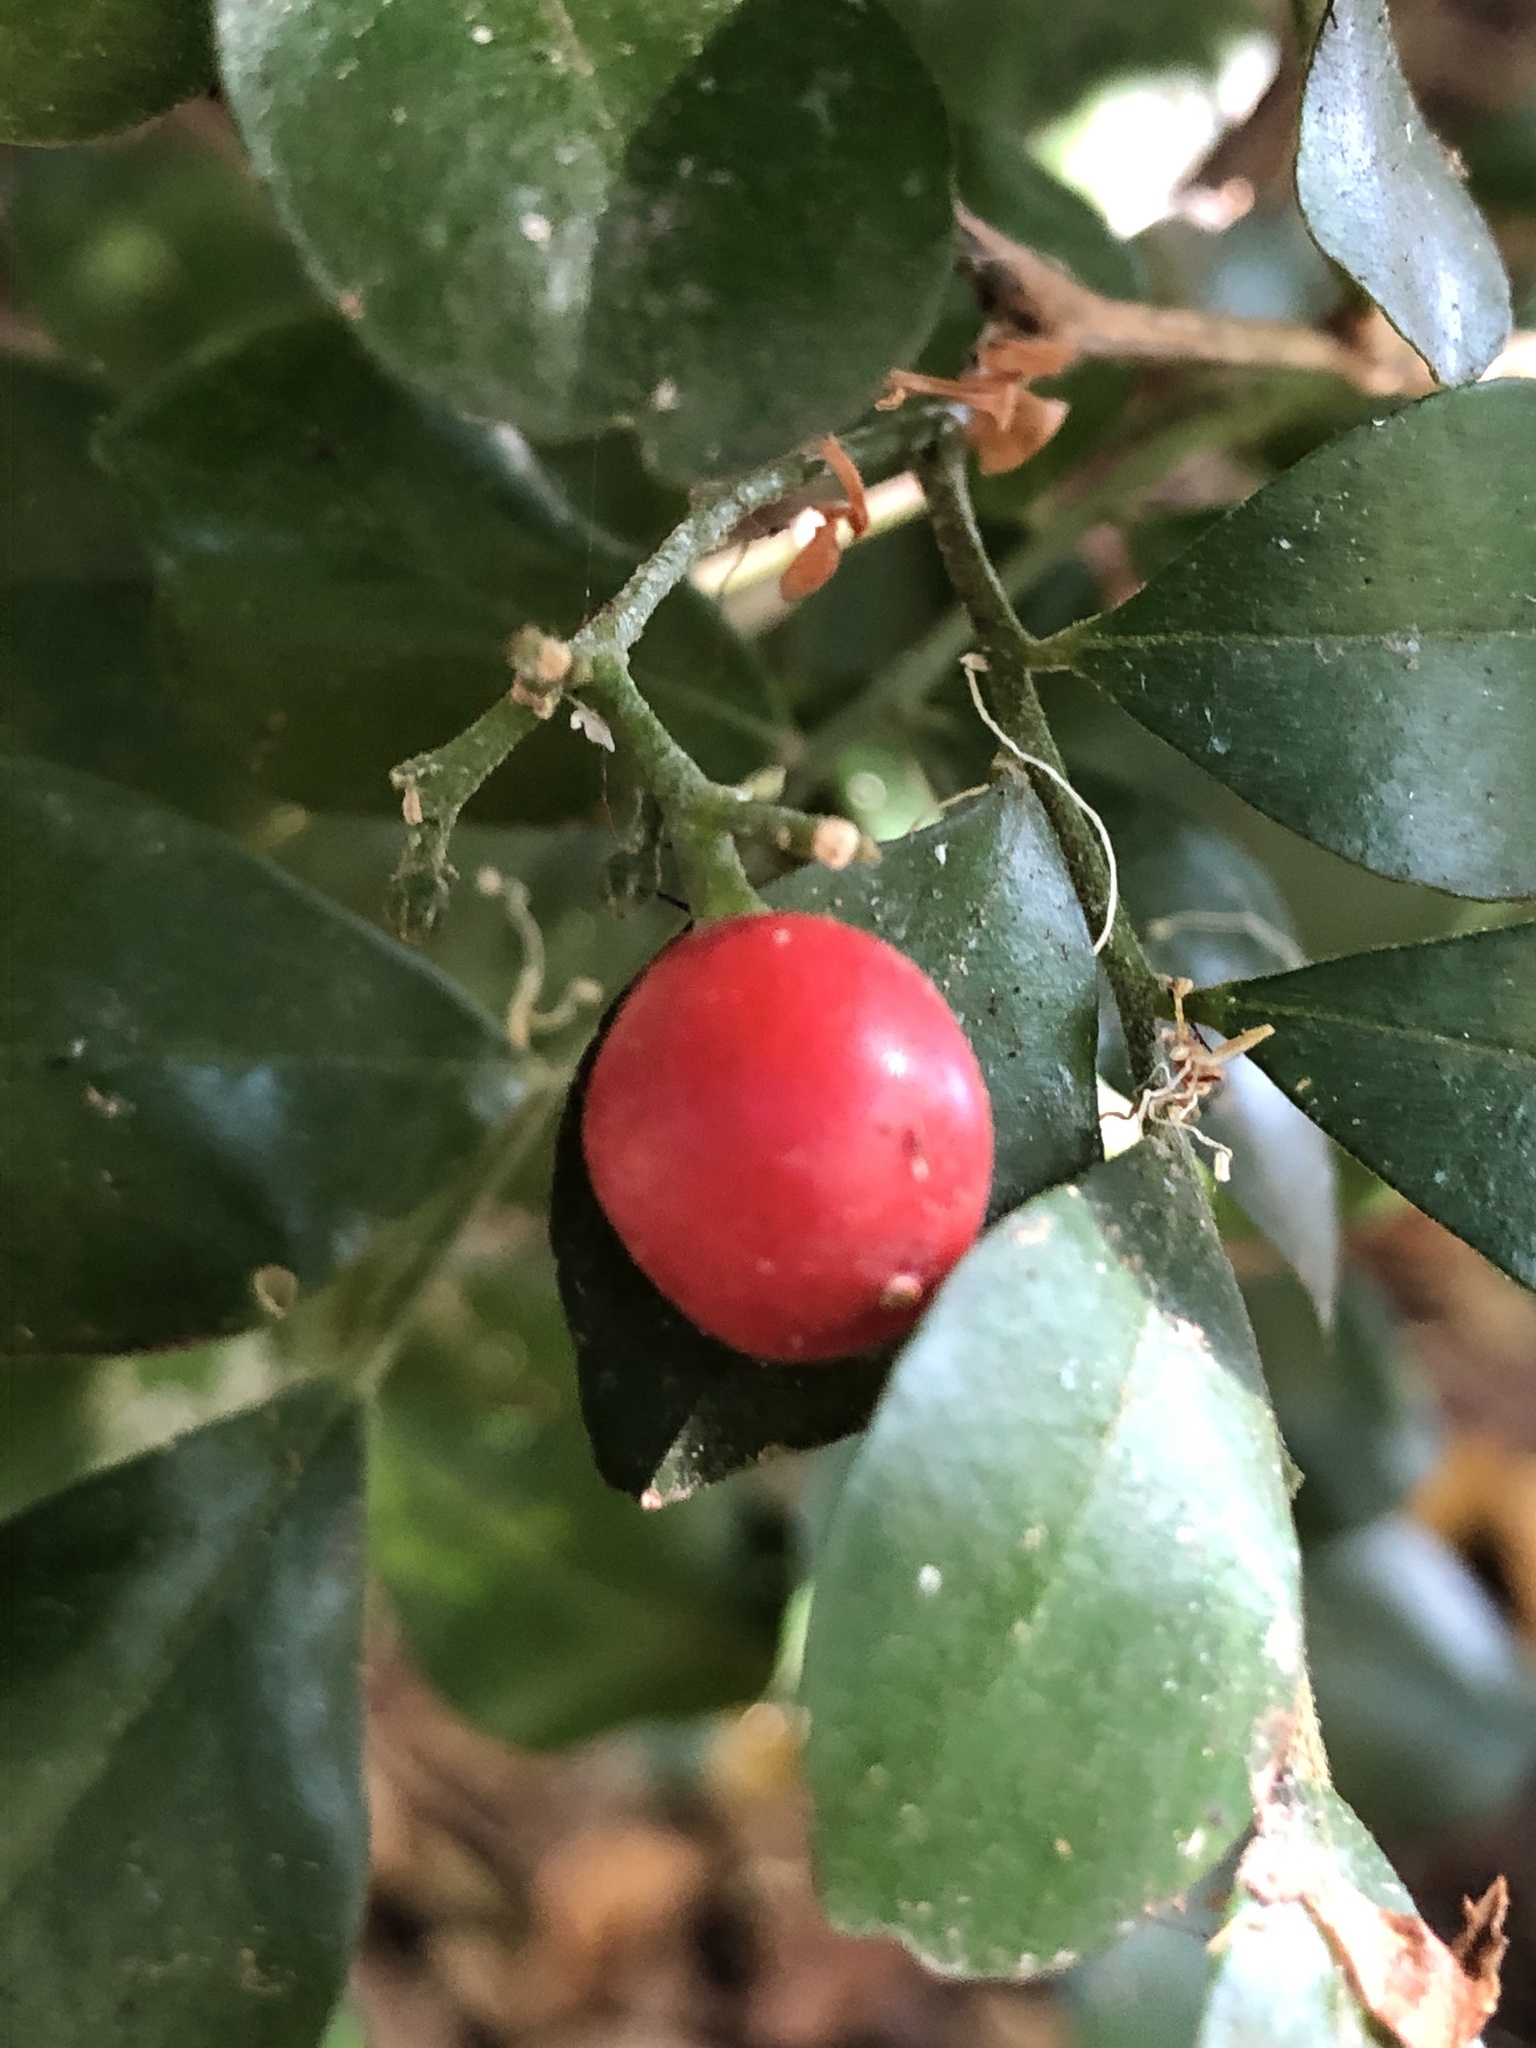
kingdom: Plantae
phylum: Tracheophyta
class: Magnoliopsida
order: Sapindales
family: Rutaceae
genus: Murraya
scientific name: Murraya paniculata
